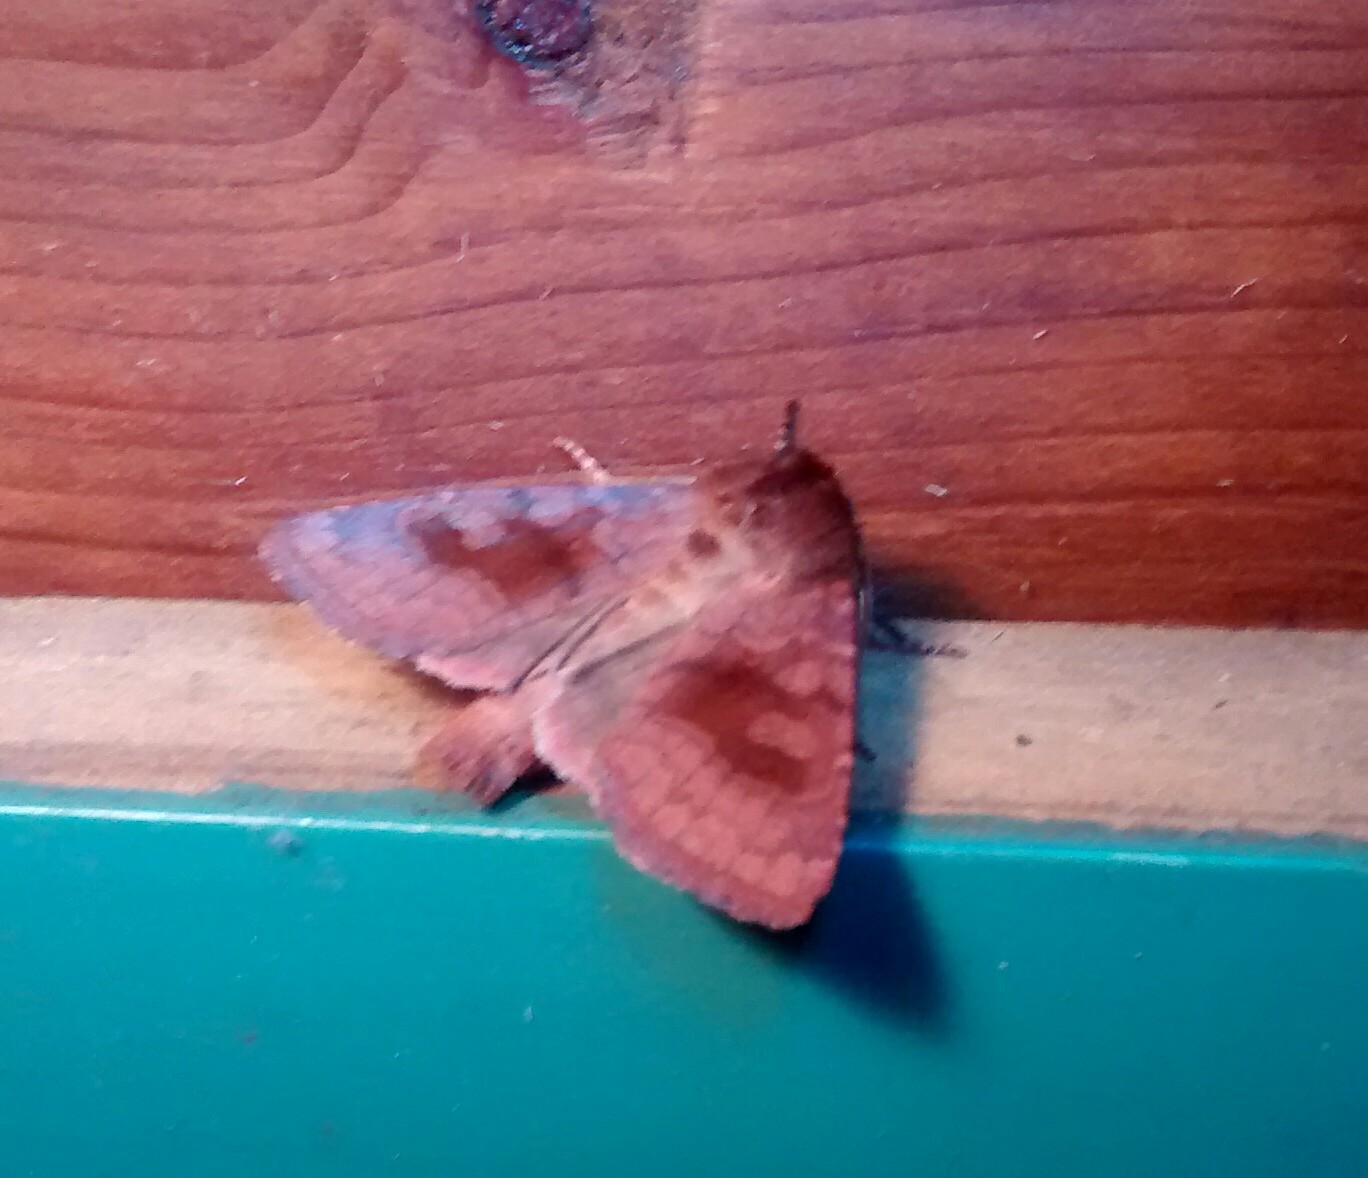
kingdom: Animalia
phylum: Arthropoda
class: Insecta
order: Lepidoptera
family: Noctuidae
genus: Nephelodes
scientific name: Nephelodes minians
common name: Bronzed cutworm
